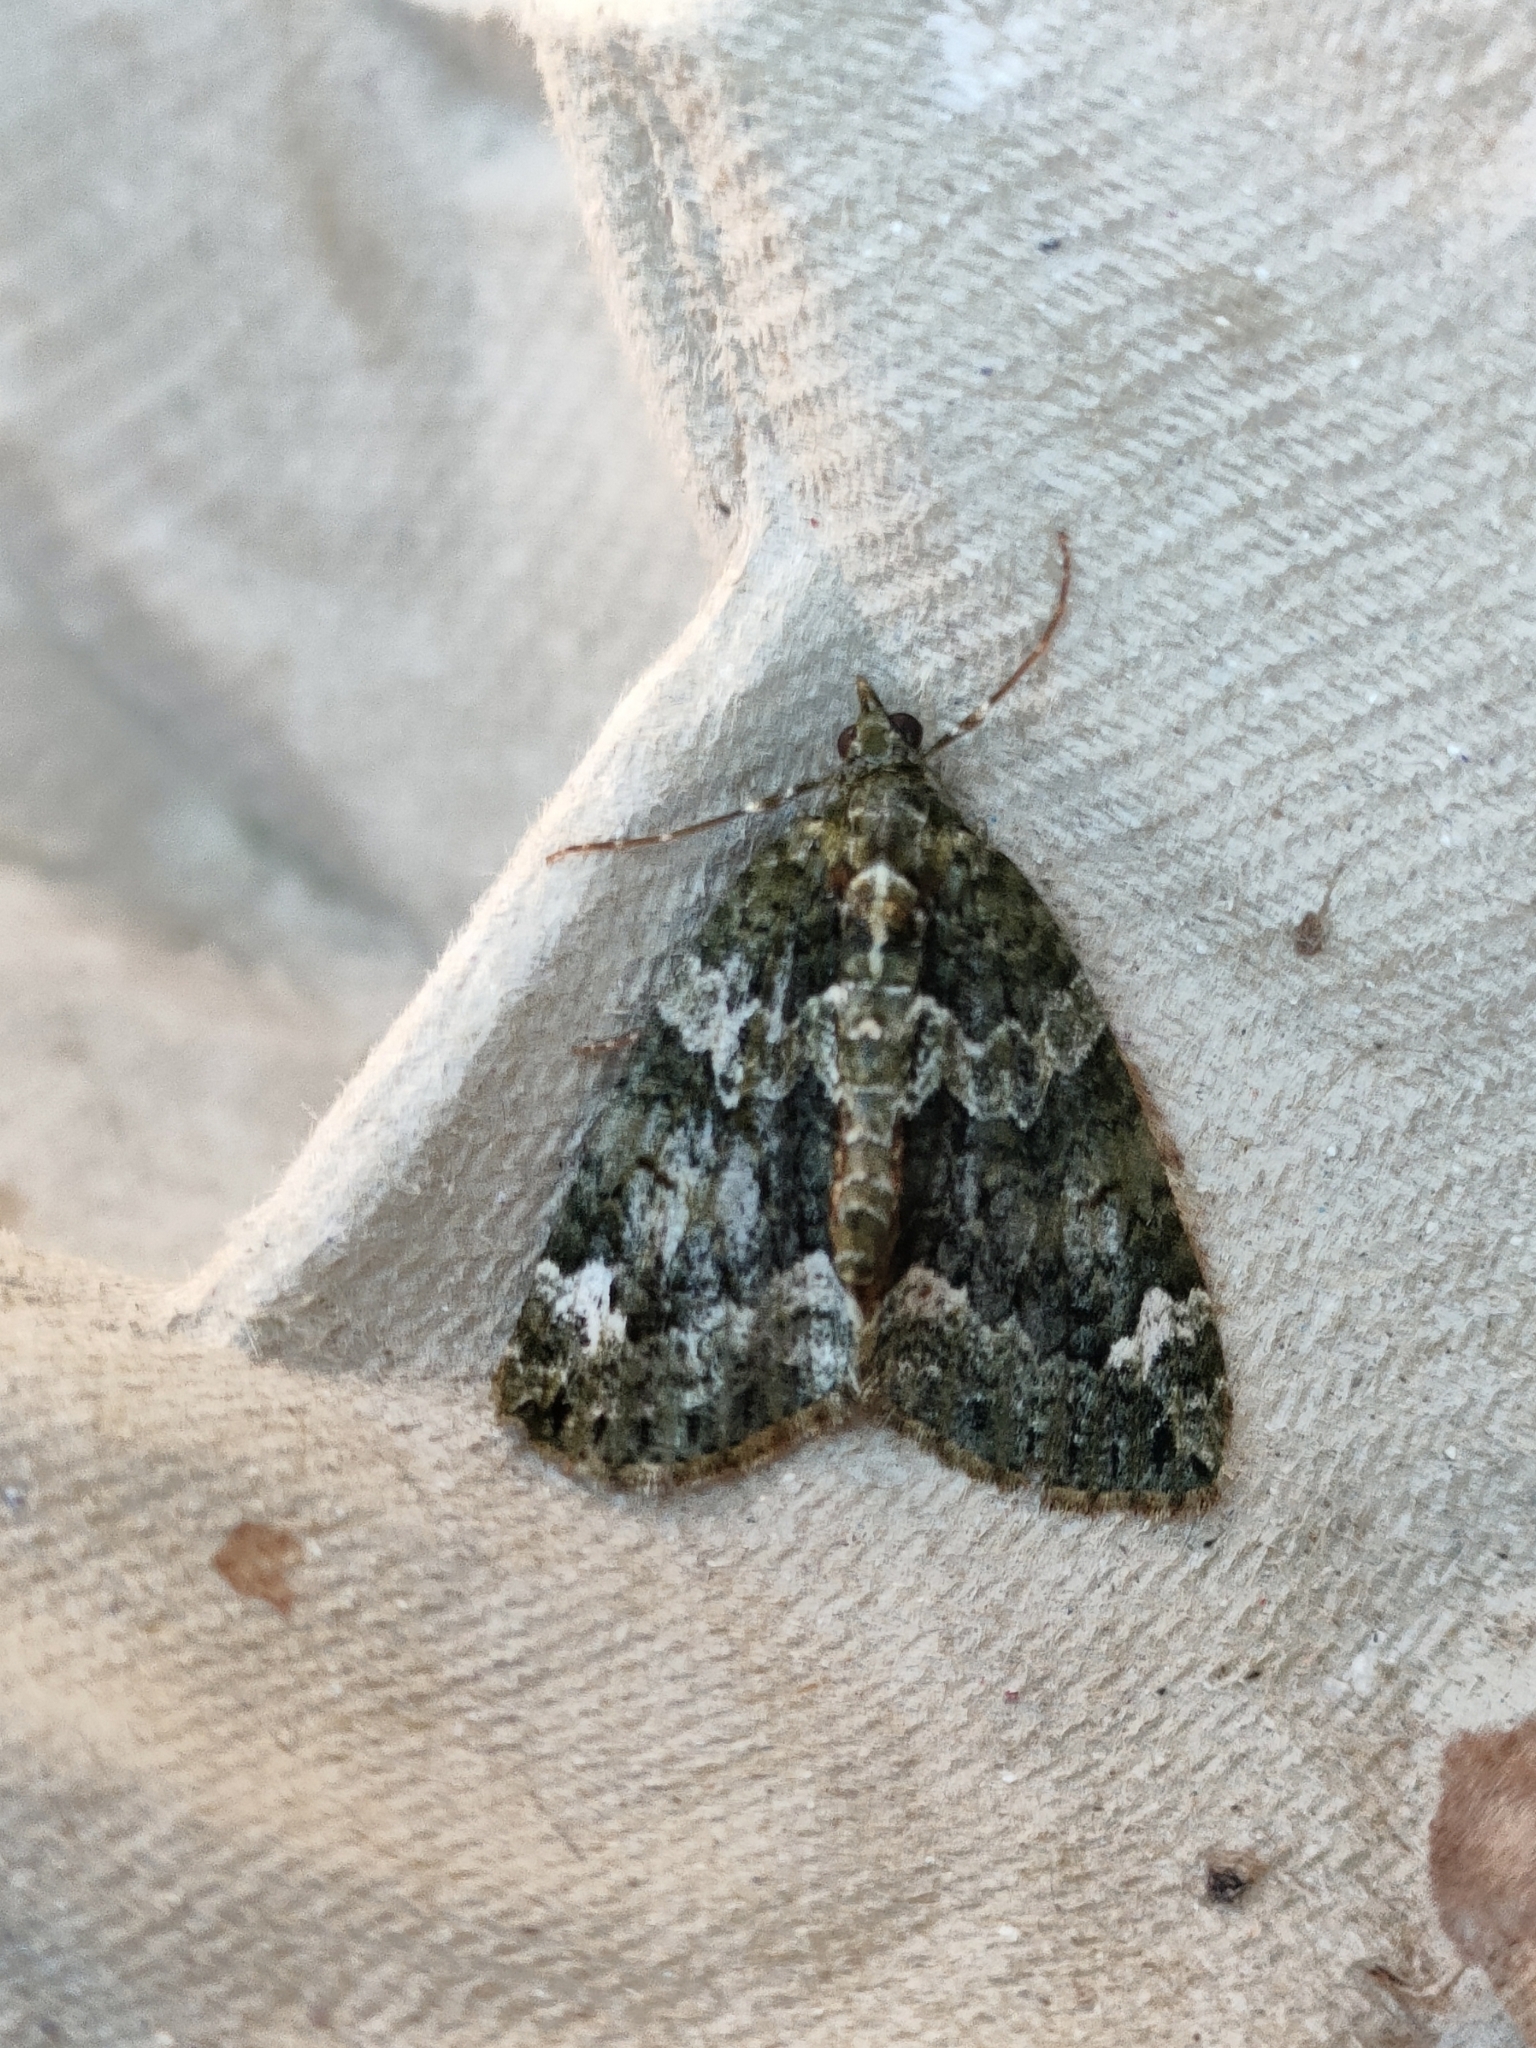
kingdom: Animalia
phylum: Arthropoda
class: Insecta
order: Lepidoptera
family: Geometridae
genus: Chloroclysta
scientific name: Chloroclysta siterata
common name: Red-green carpet
